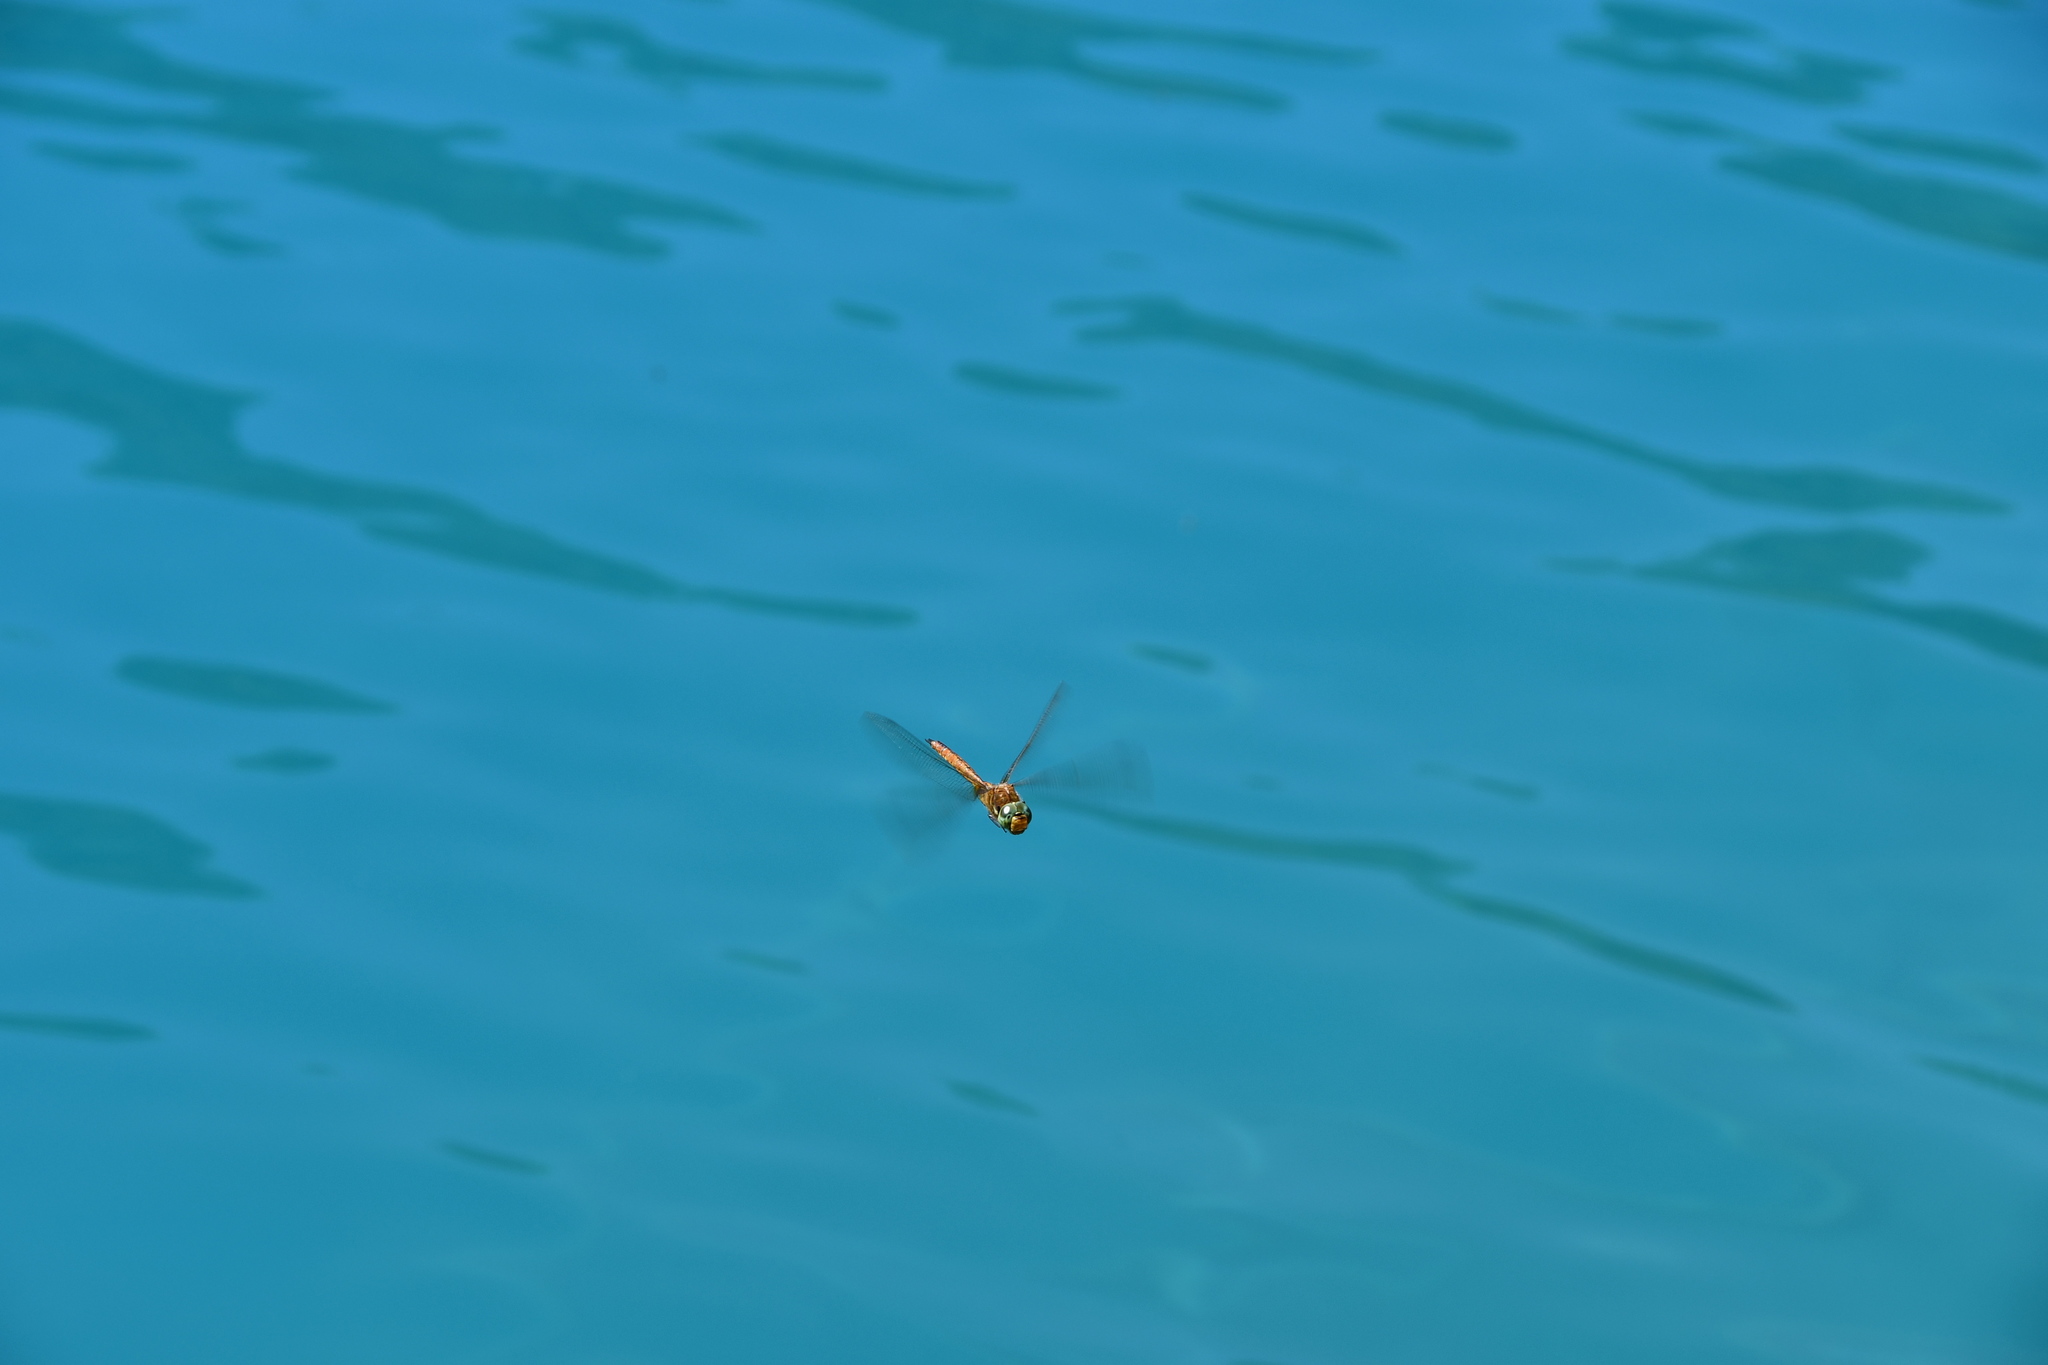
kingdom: Animalia
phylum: Arthropoda
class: Insecta
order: Odonata
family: Aeshnidae
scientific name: Aeshnidae
